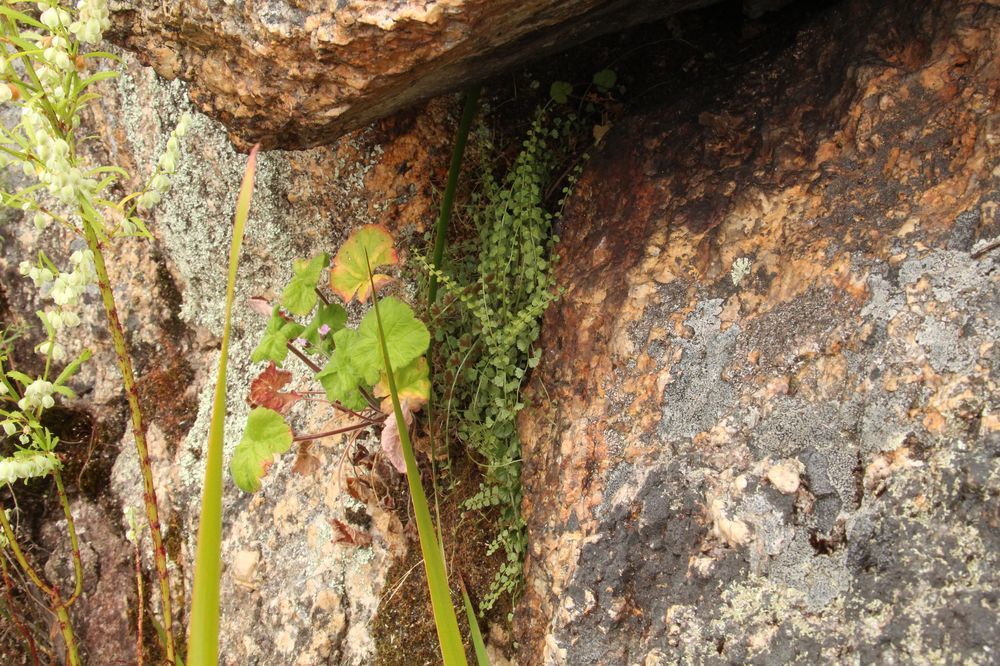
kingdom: Plantae
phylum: Tracheophyta
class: Polypodiopsida
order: Polypodiales
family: Aspleniaceae
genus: Asplenium
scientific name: Asplenium flabellifolium
